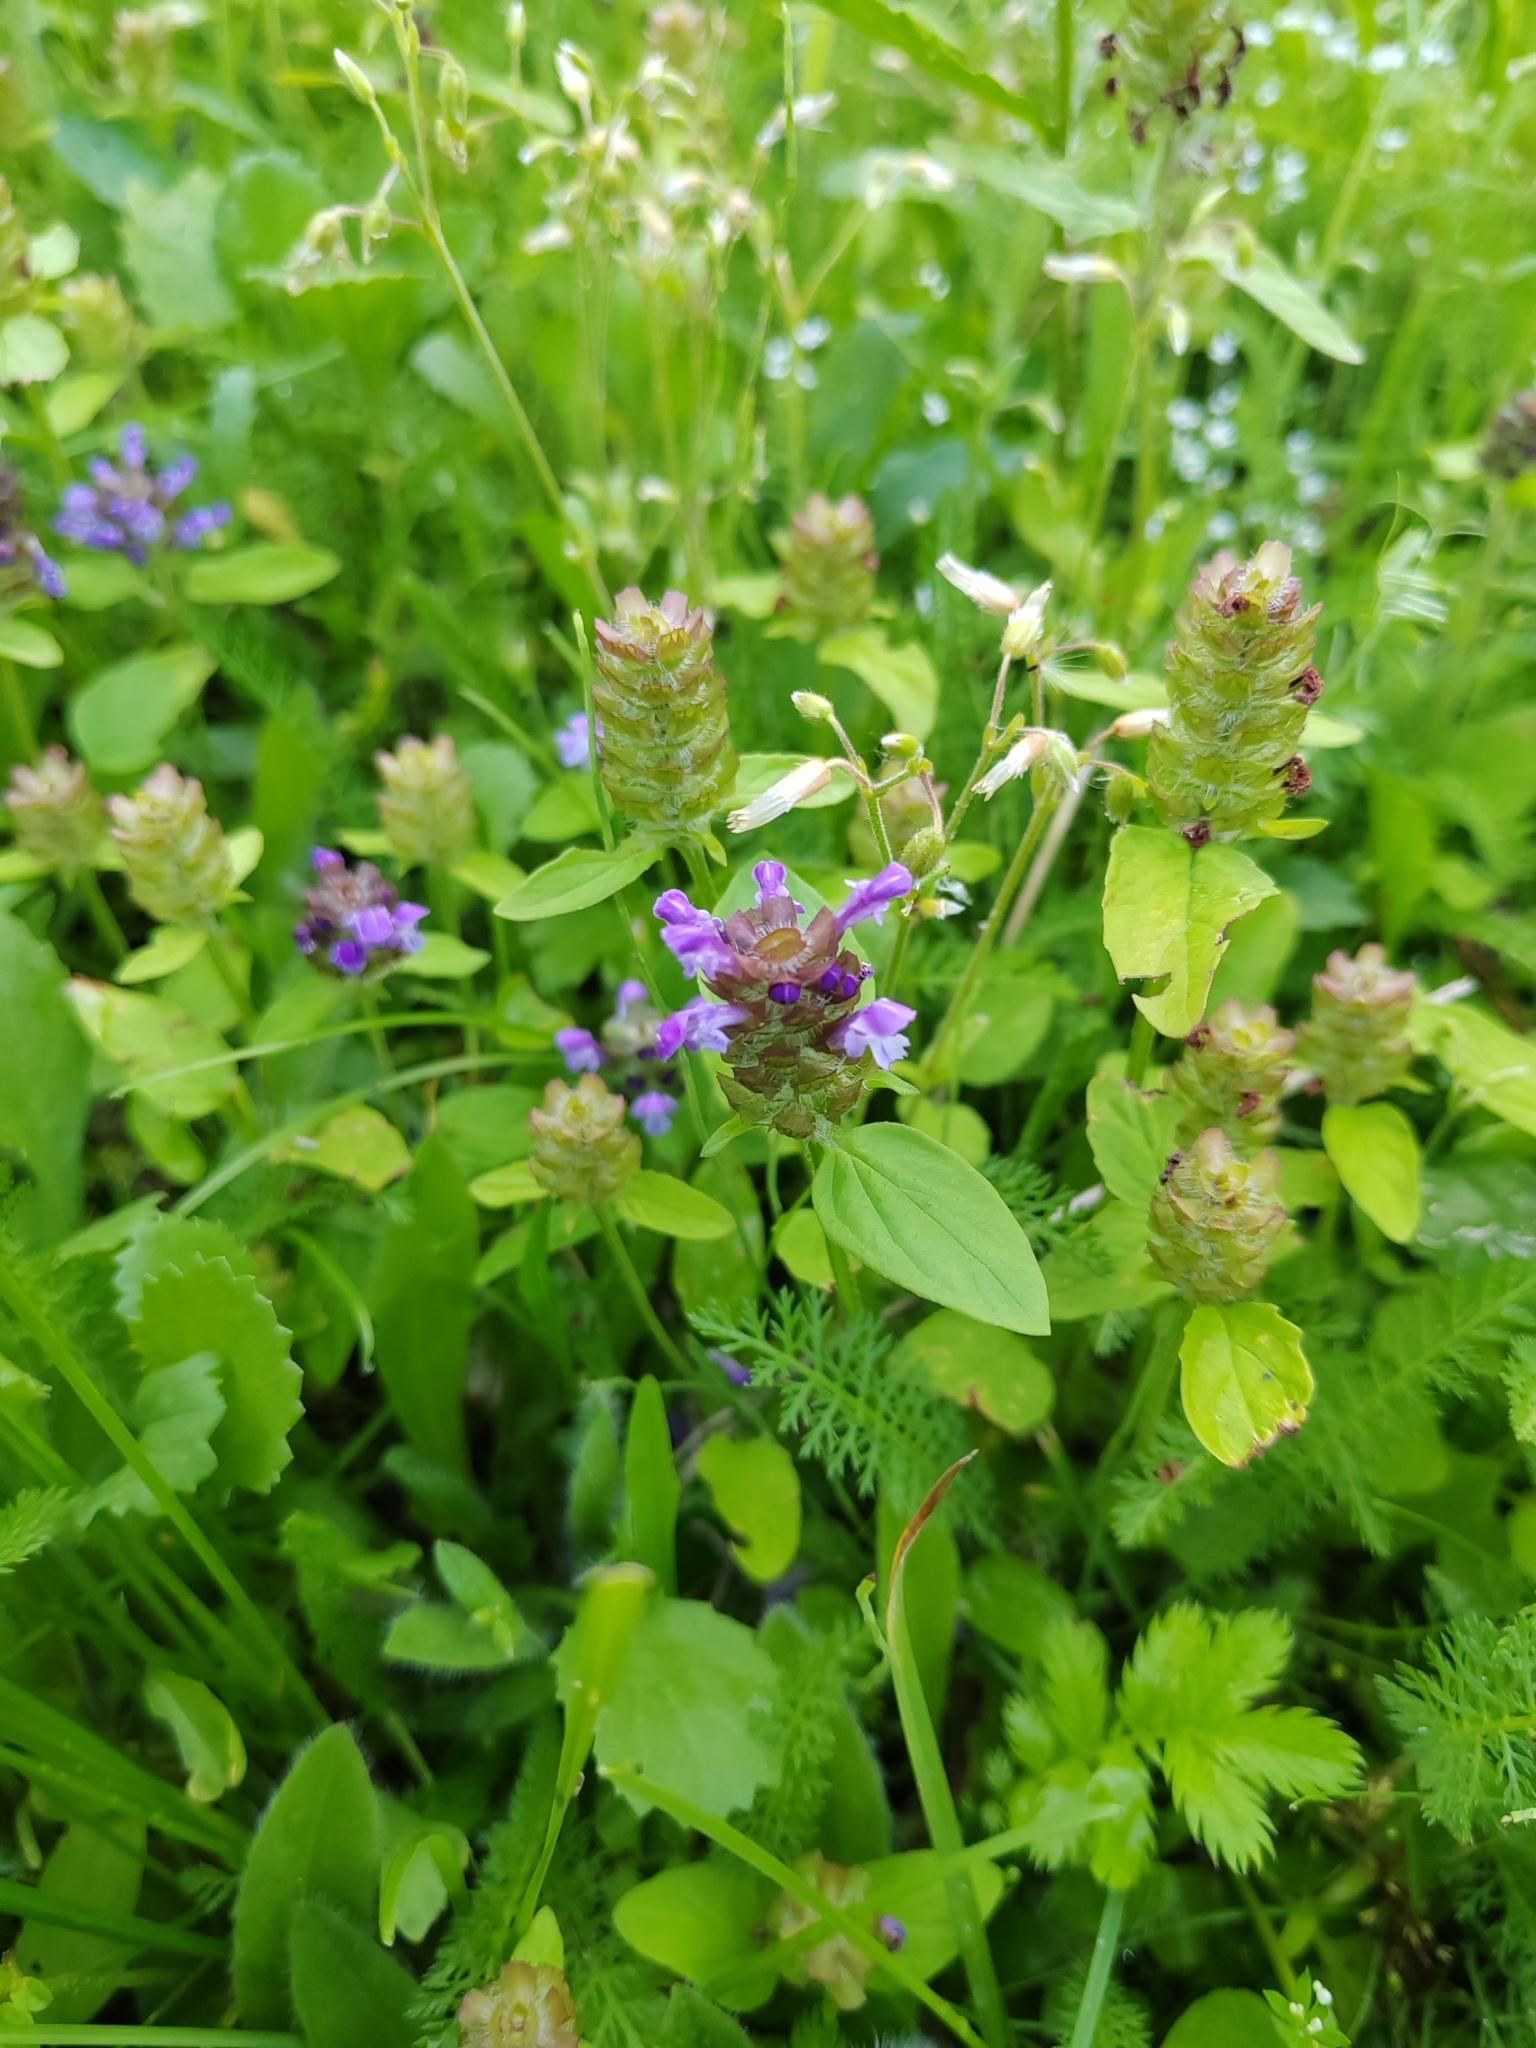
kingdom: Plantae
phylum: Tracheophyta
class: Magnoliopsida
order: Lamiales
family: Lamiaceae
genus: Prunella
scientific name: Prunella vulgaris
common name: Heal-all
